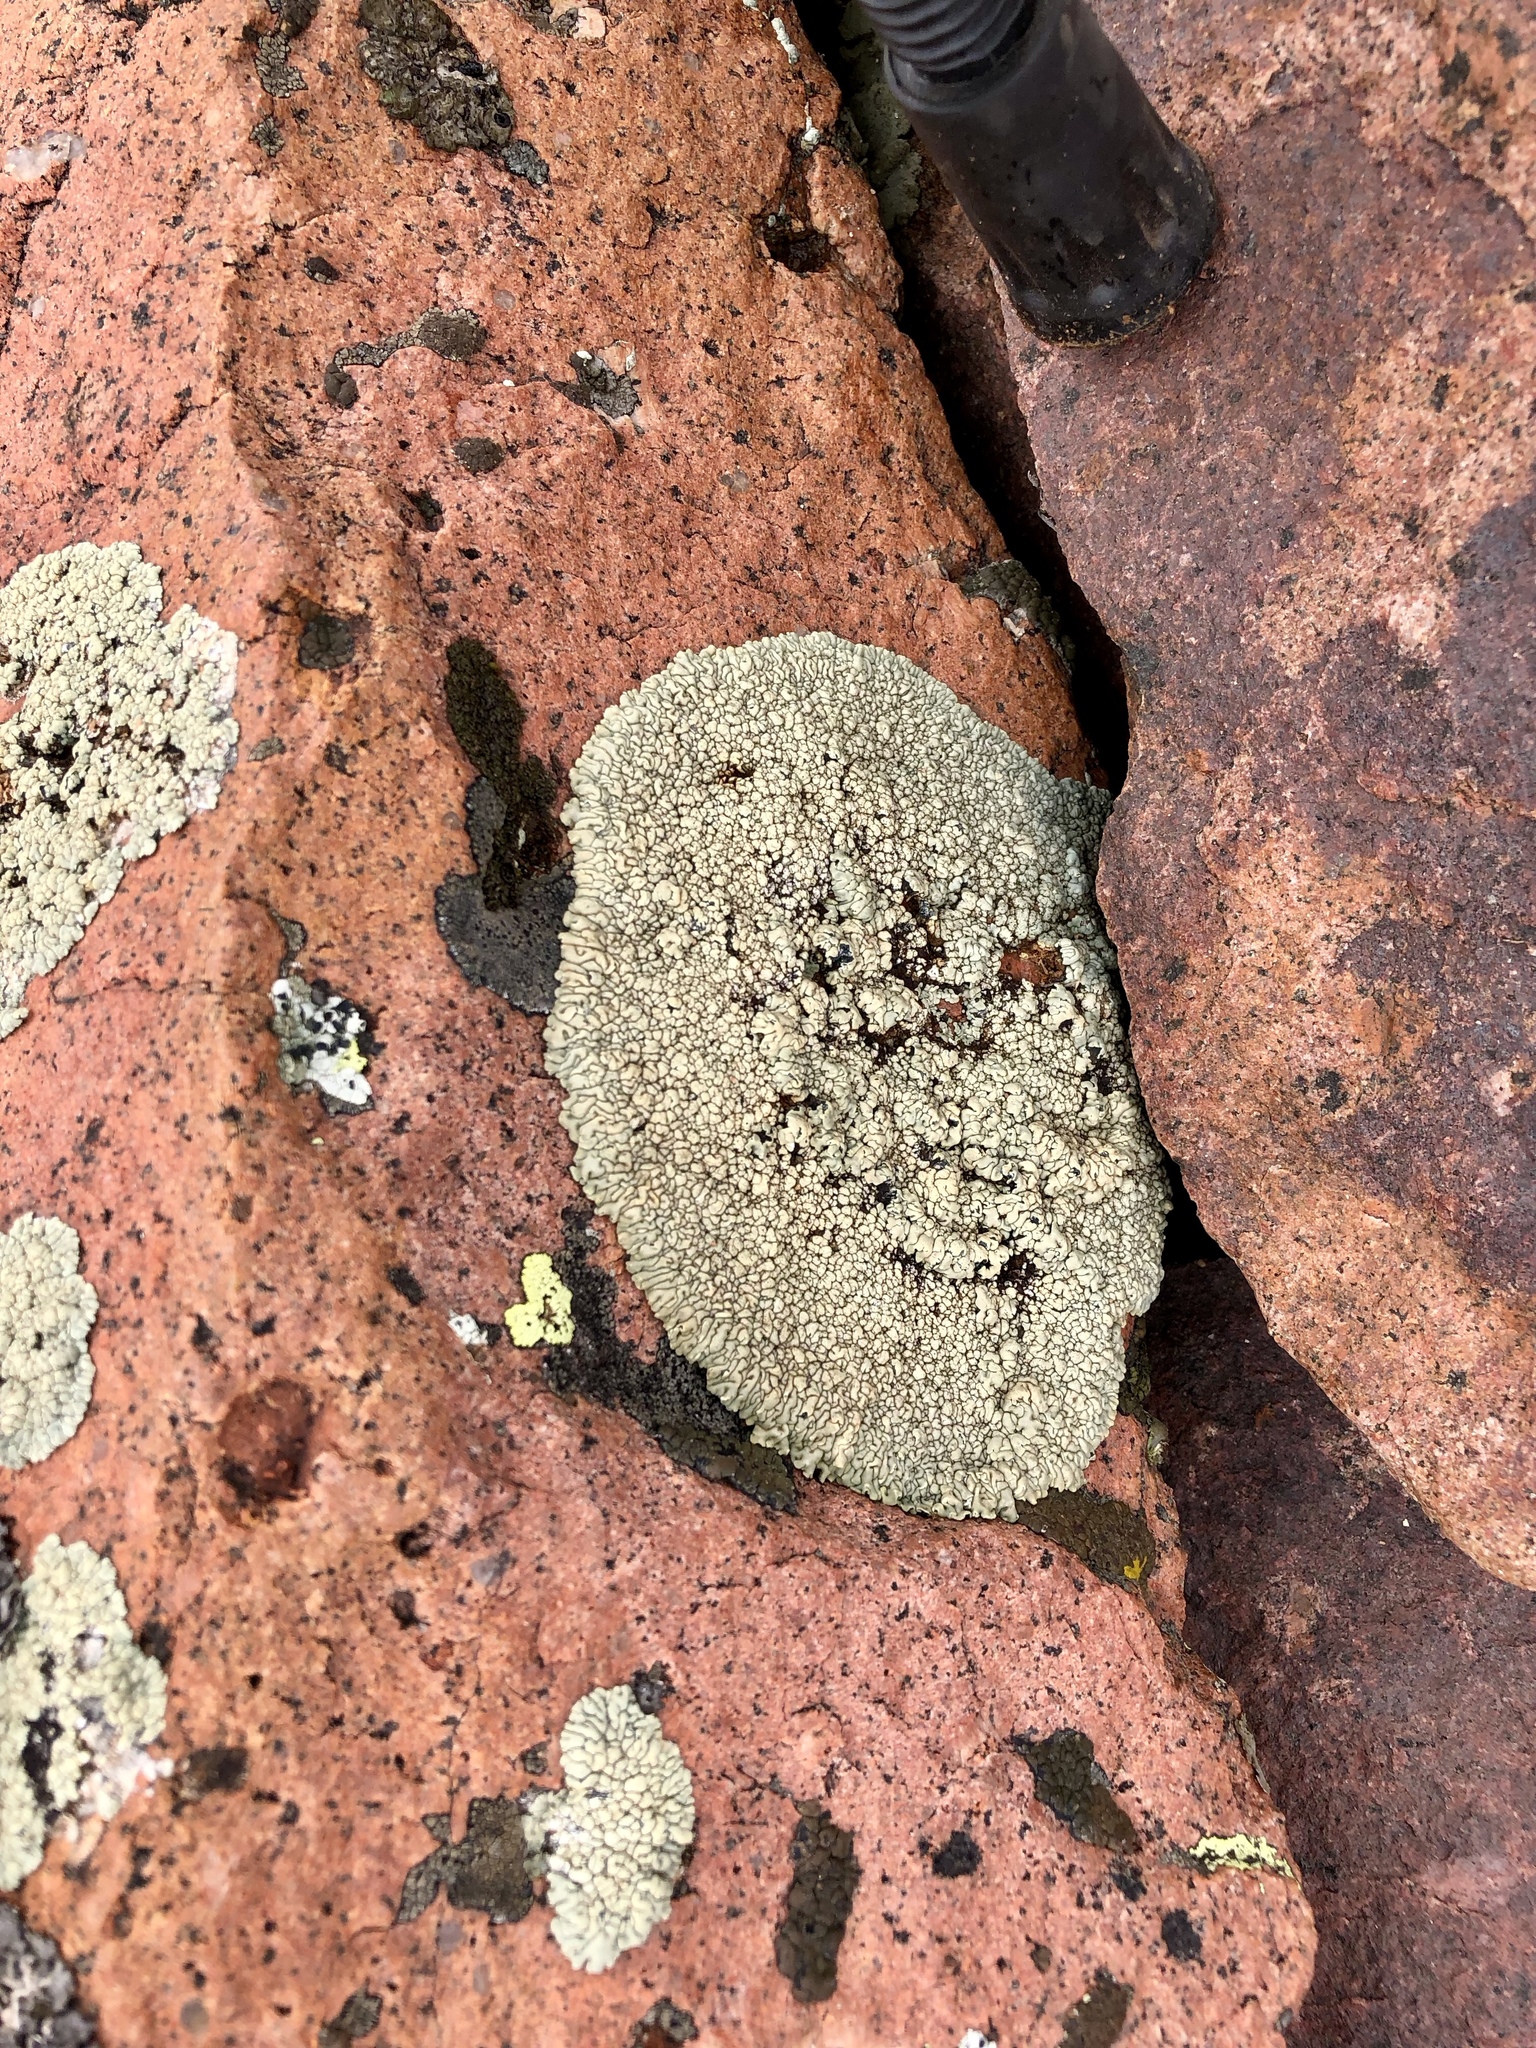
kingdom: Fungi
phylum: Ascomycota
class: Lecanoromycetes
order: Caliciales
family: Caliciaceae
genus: Dimelaena
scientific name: Dimelaena oreina
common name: Golden moonglow lichen
